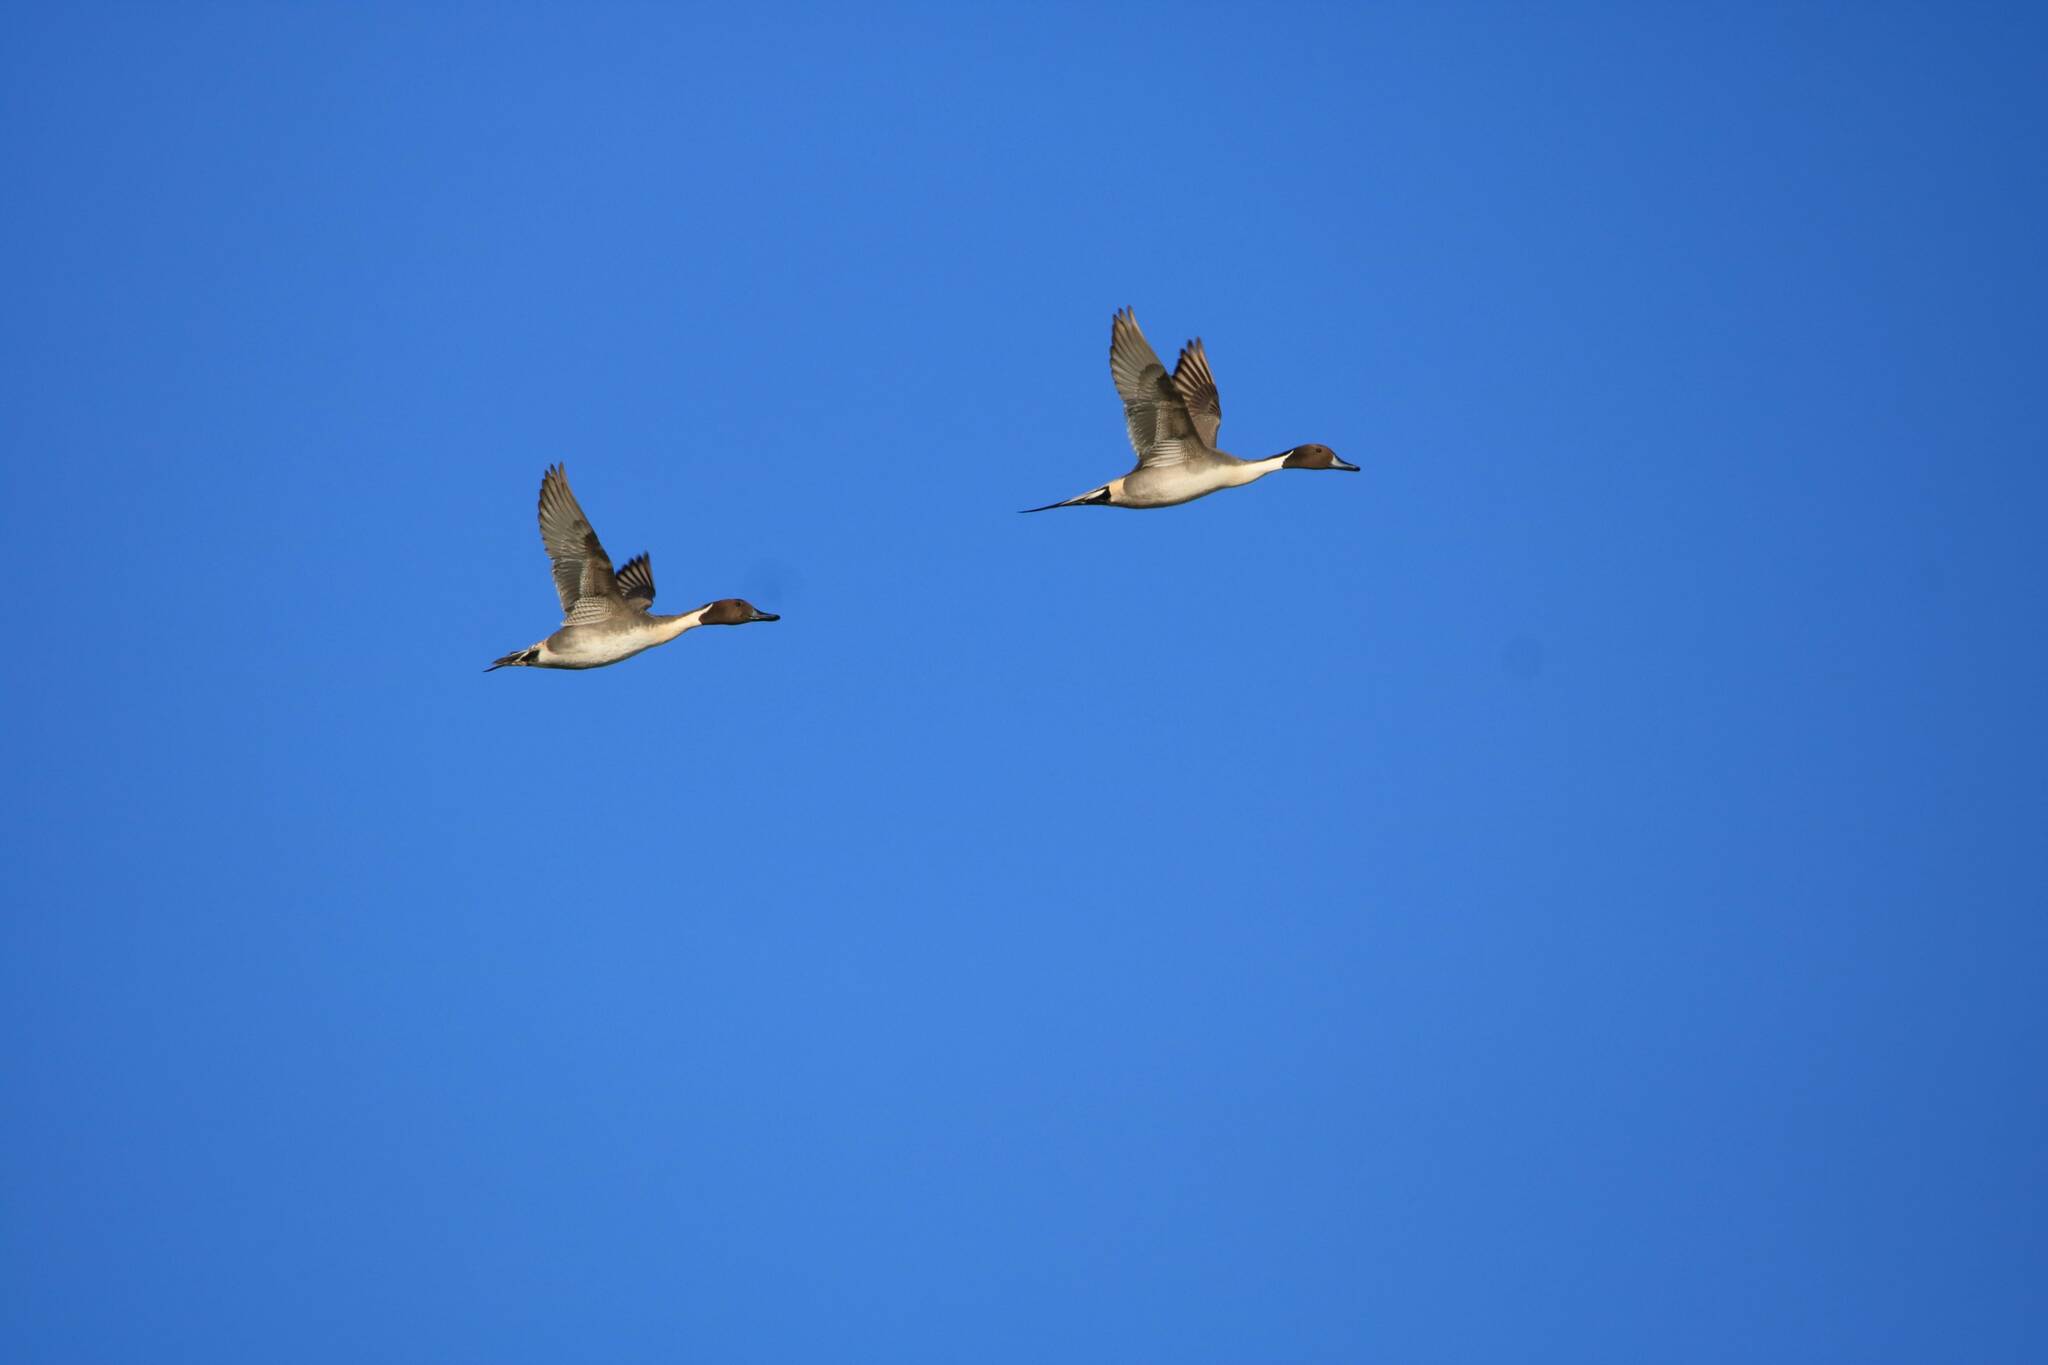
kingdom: Animalia
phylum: Chordata
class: Aves
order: Anseriformes
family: Anatidae
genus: Anas
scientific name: Anas acuta
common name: Northern pintail
